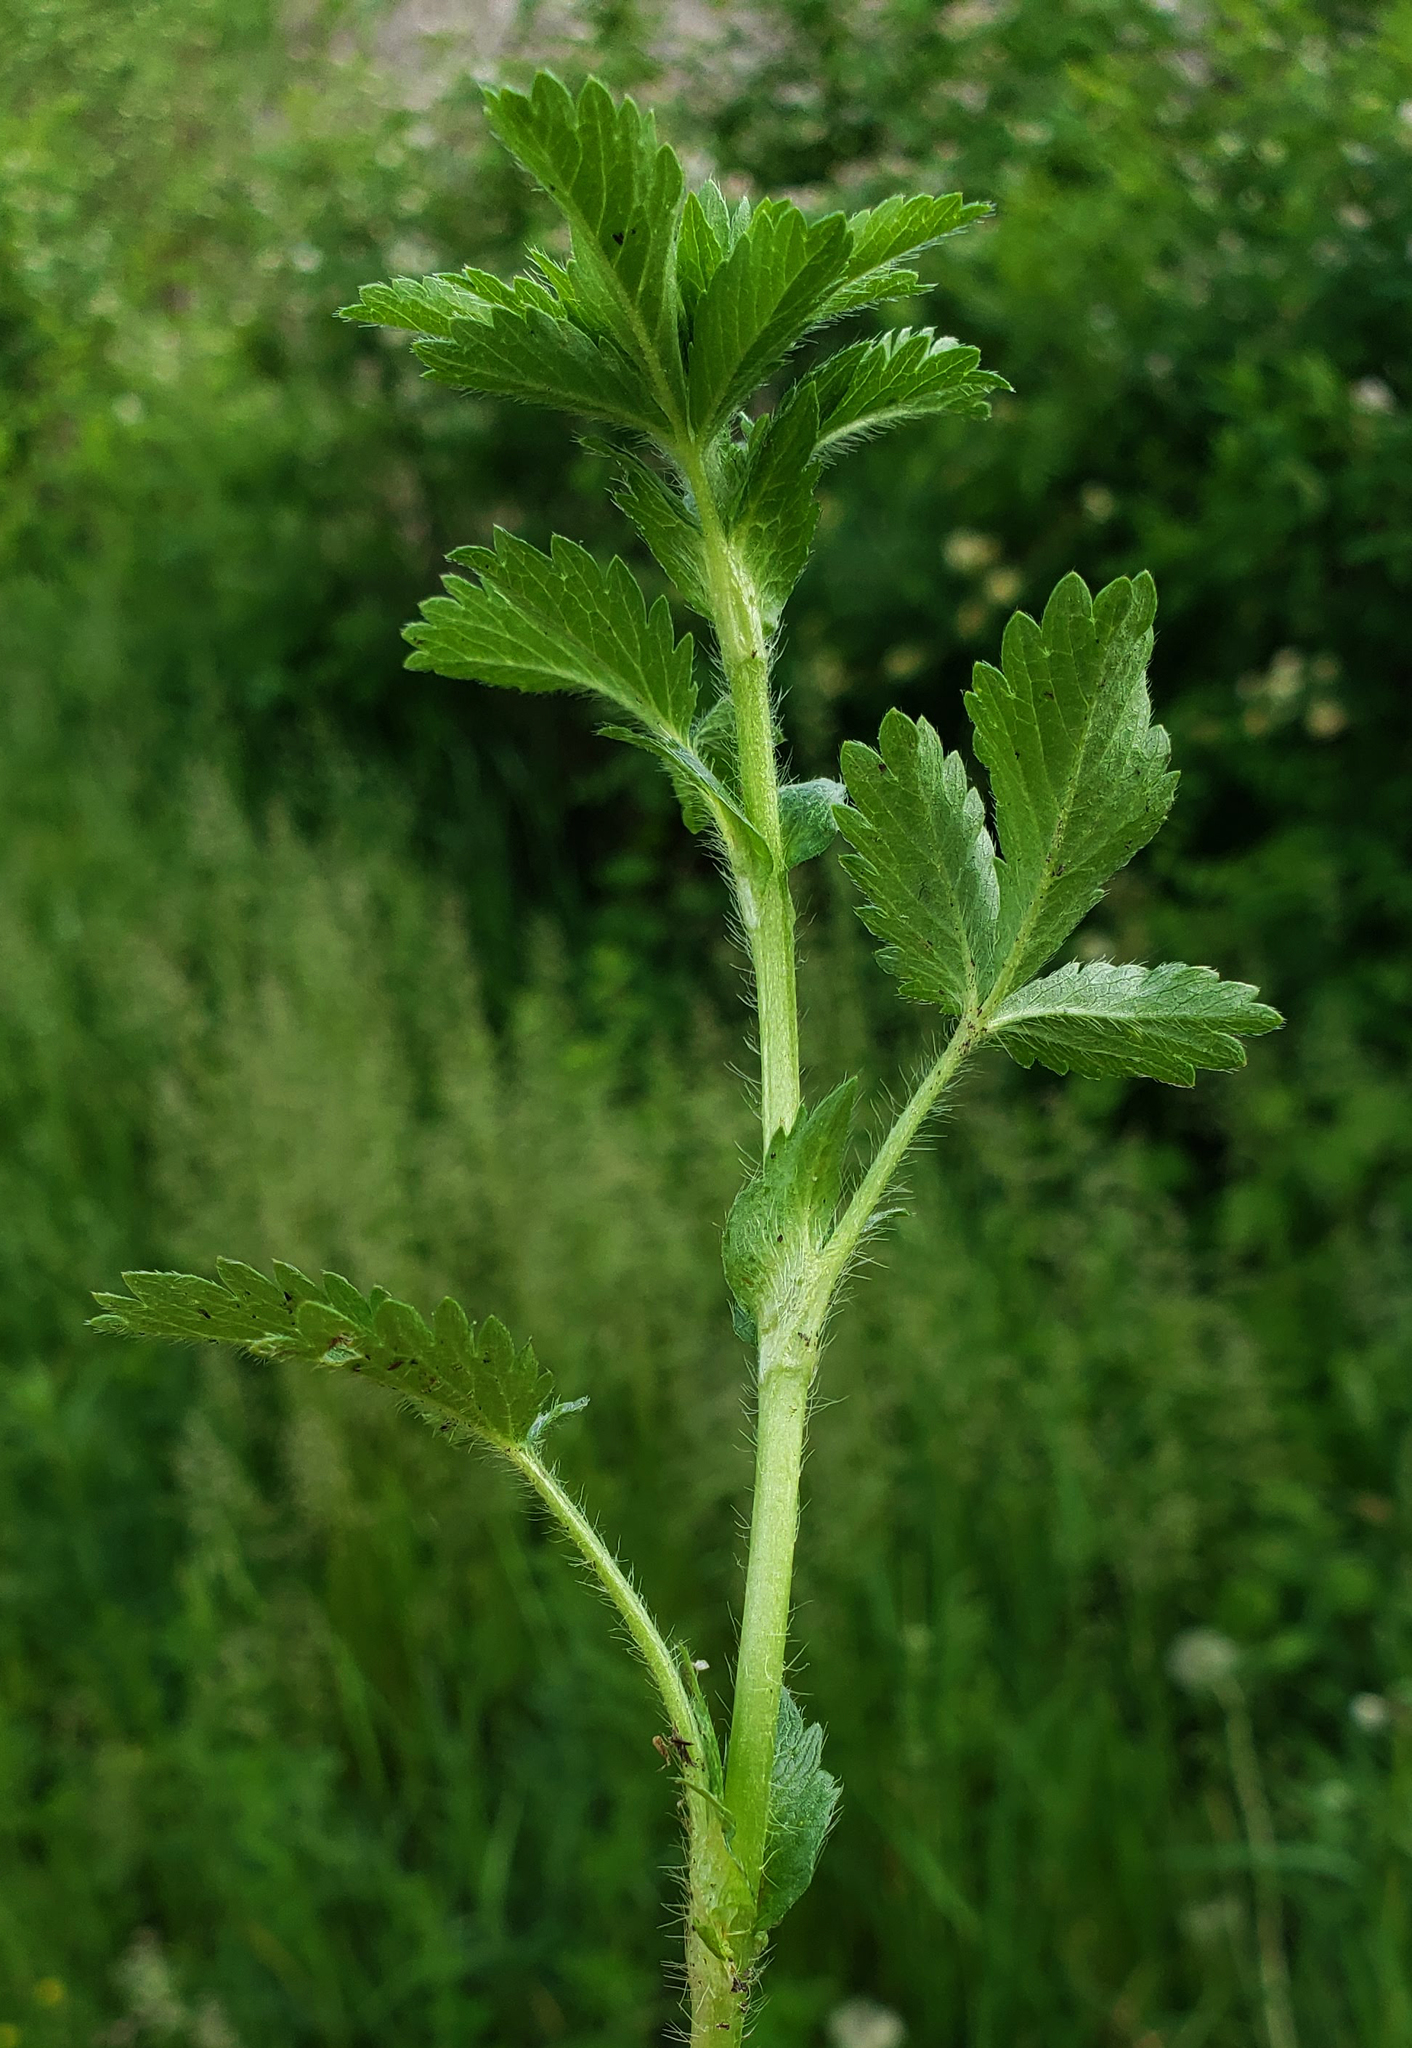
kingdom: Plantae
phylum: Tracheophyta
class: Magnoliopsida
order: Rosales
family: Rosaceae
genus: Potentilla
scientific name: Potentilla norvegica
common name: Ternate-leaved cinquefoil
